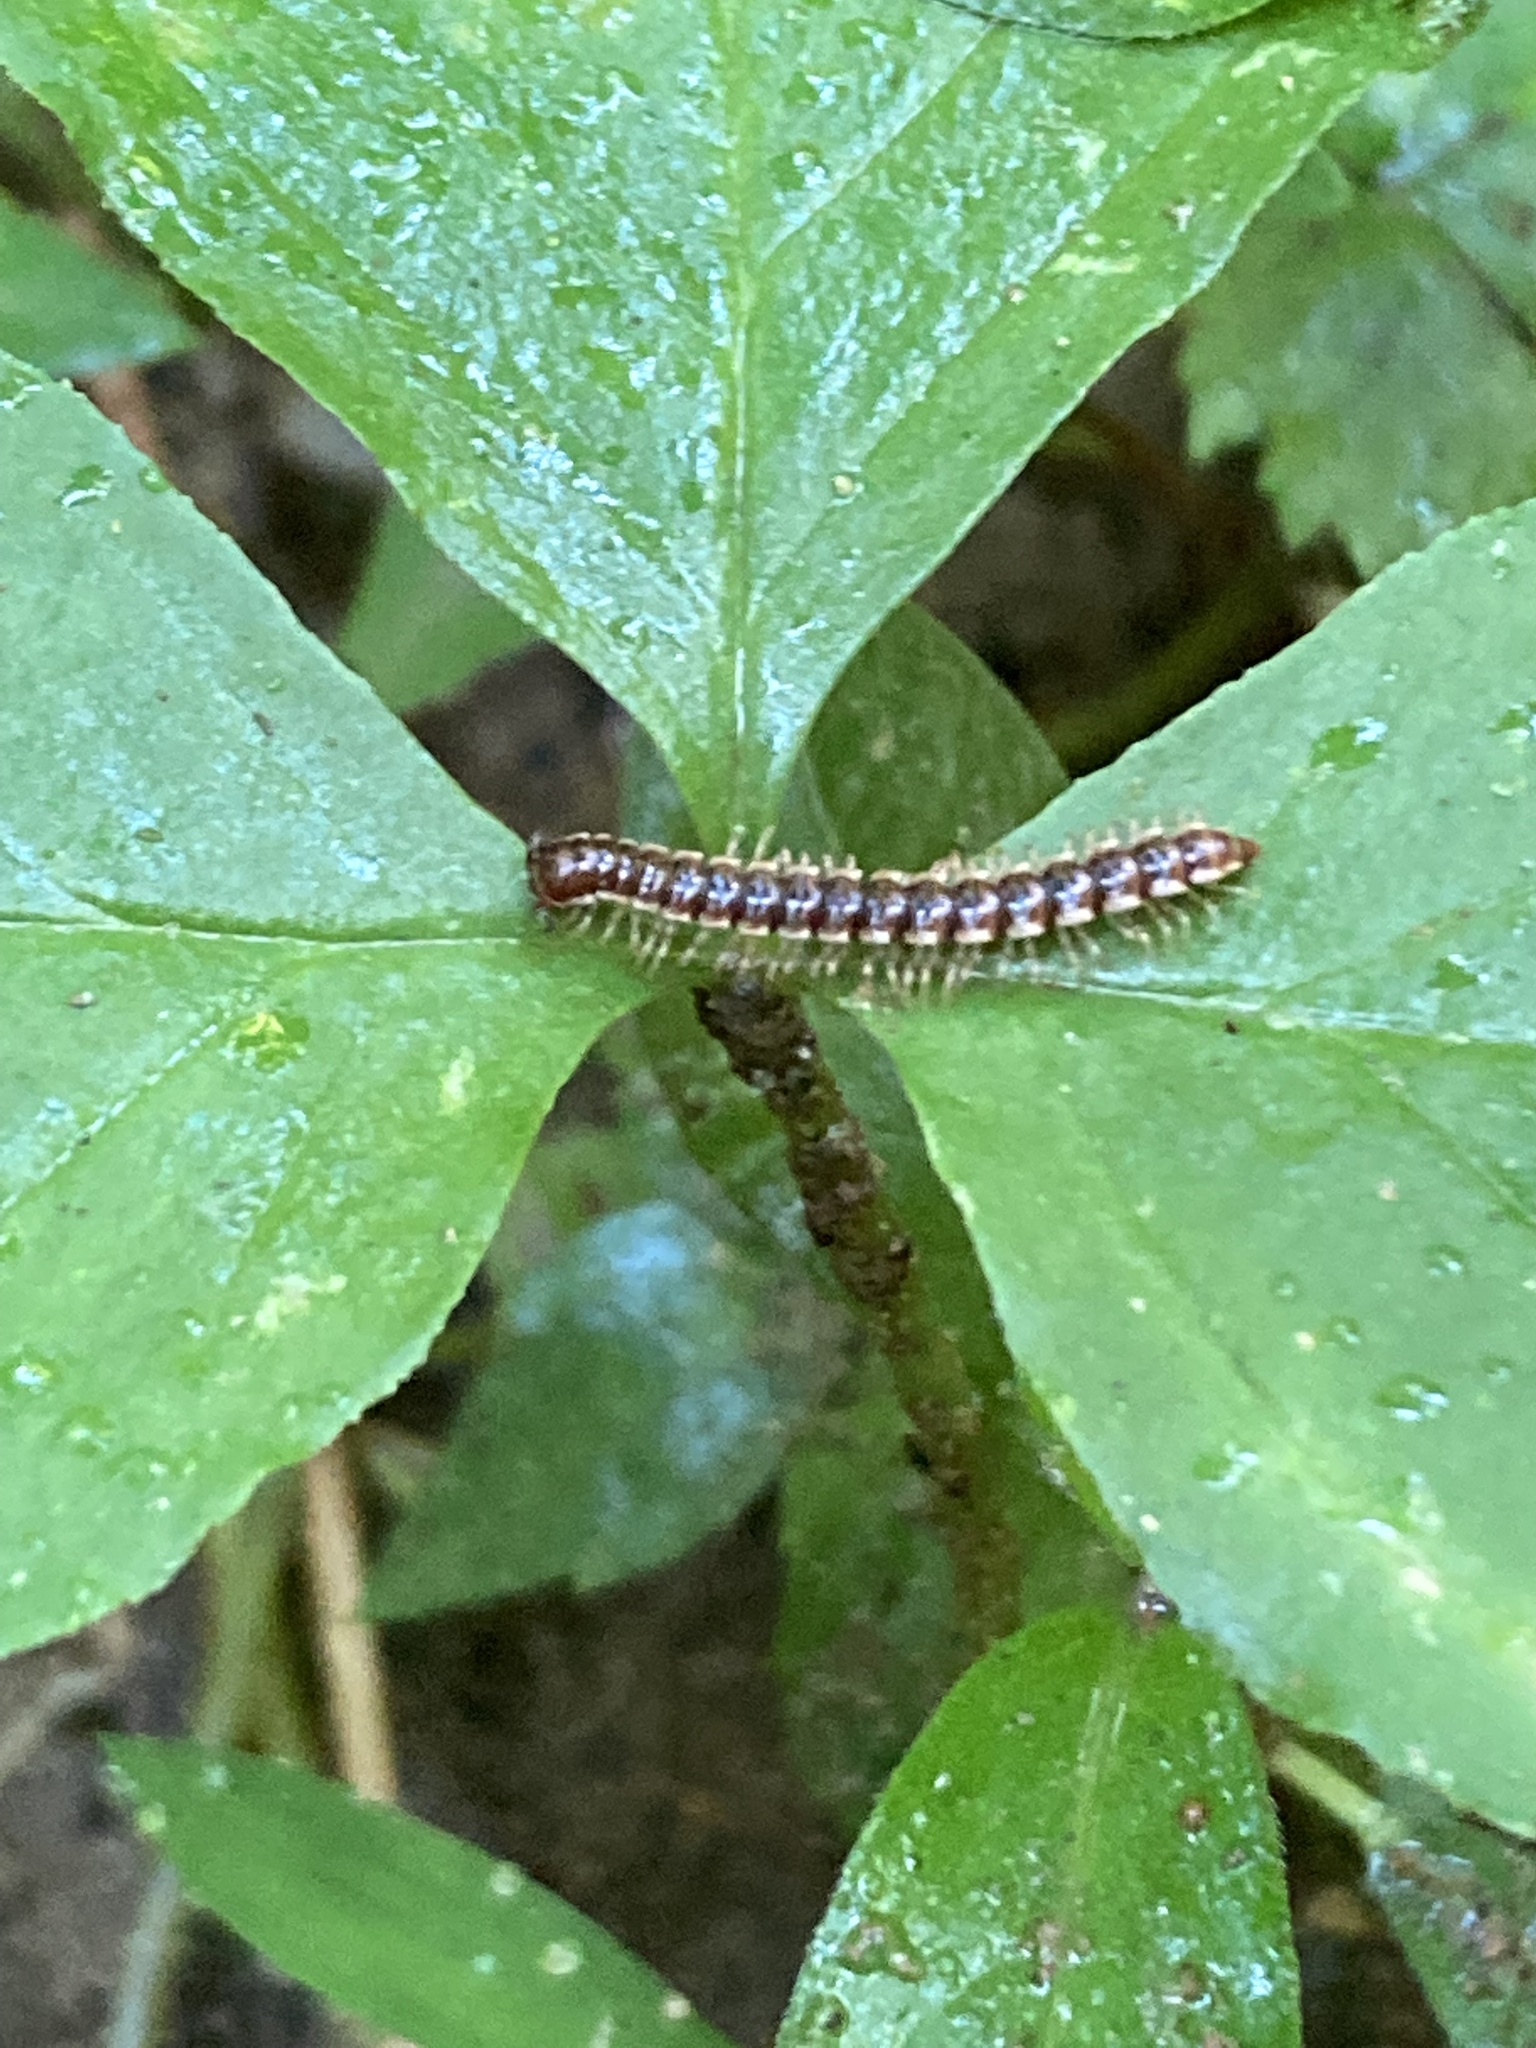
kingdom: Animalia
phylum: Arthropoda
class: Diplopoda
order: Polydesmida
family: Paradoxosomatidae
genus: Oxidus
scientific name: Oxidus gracilis
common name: Greenhouse millipede
